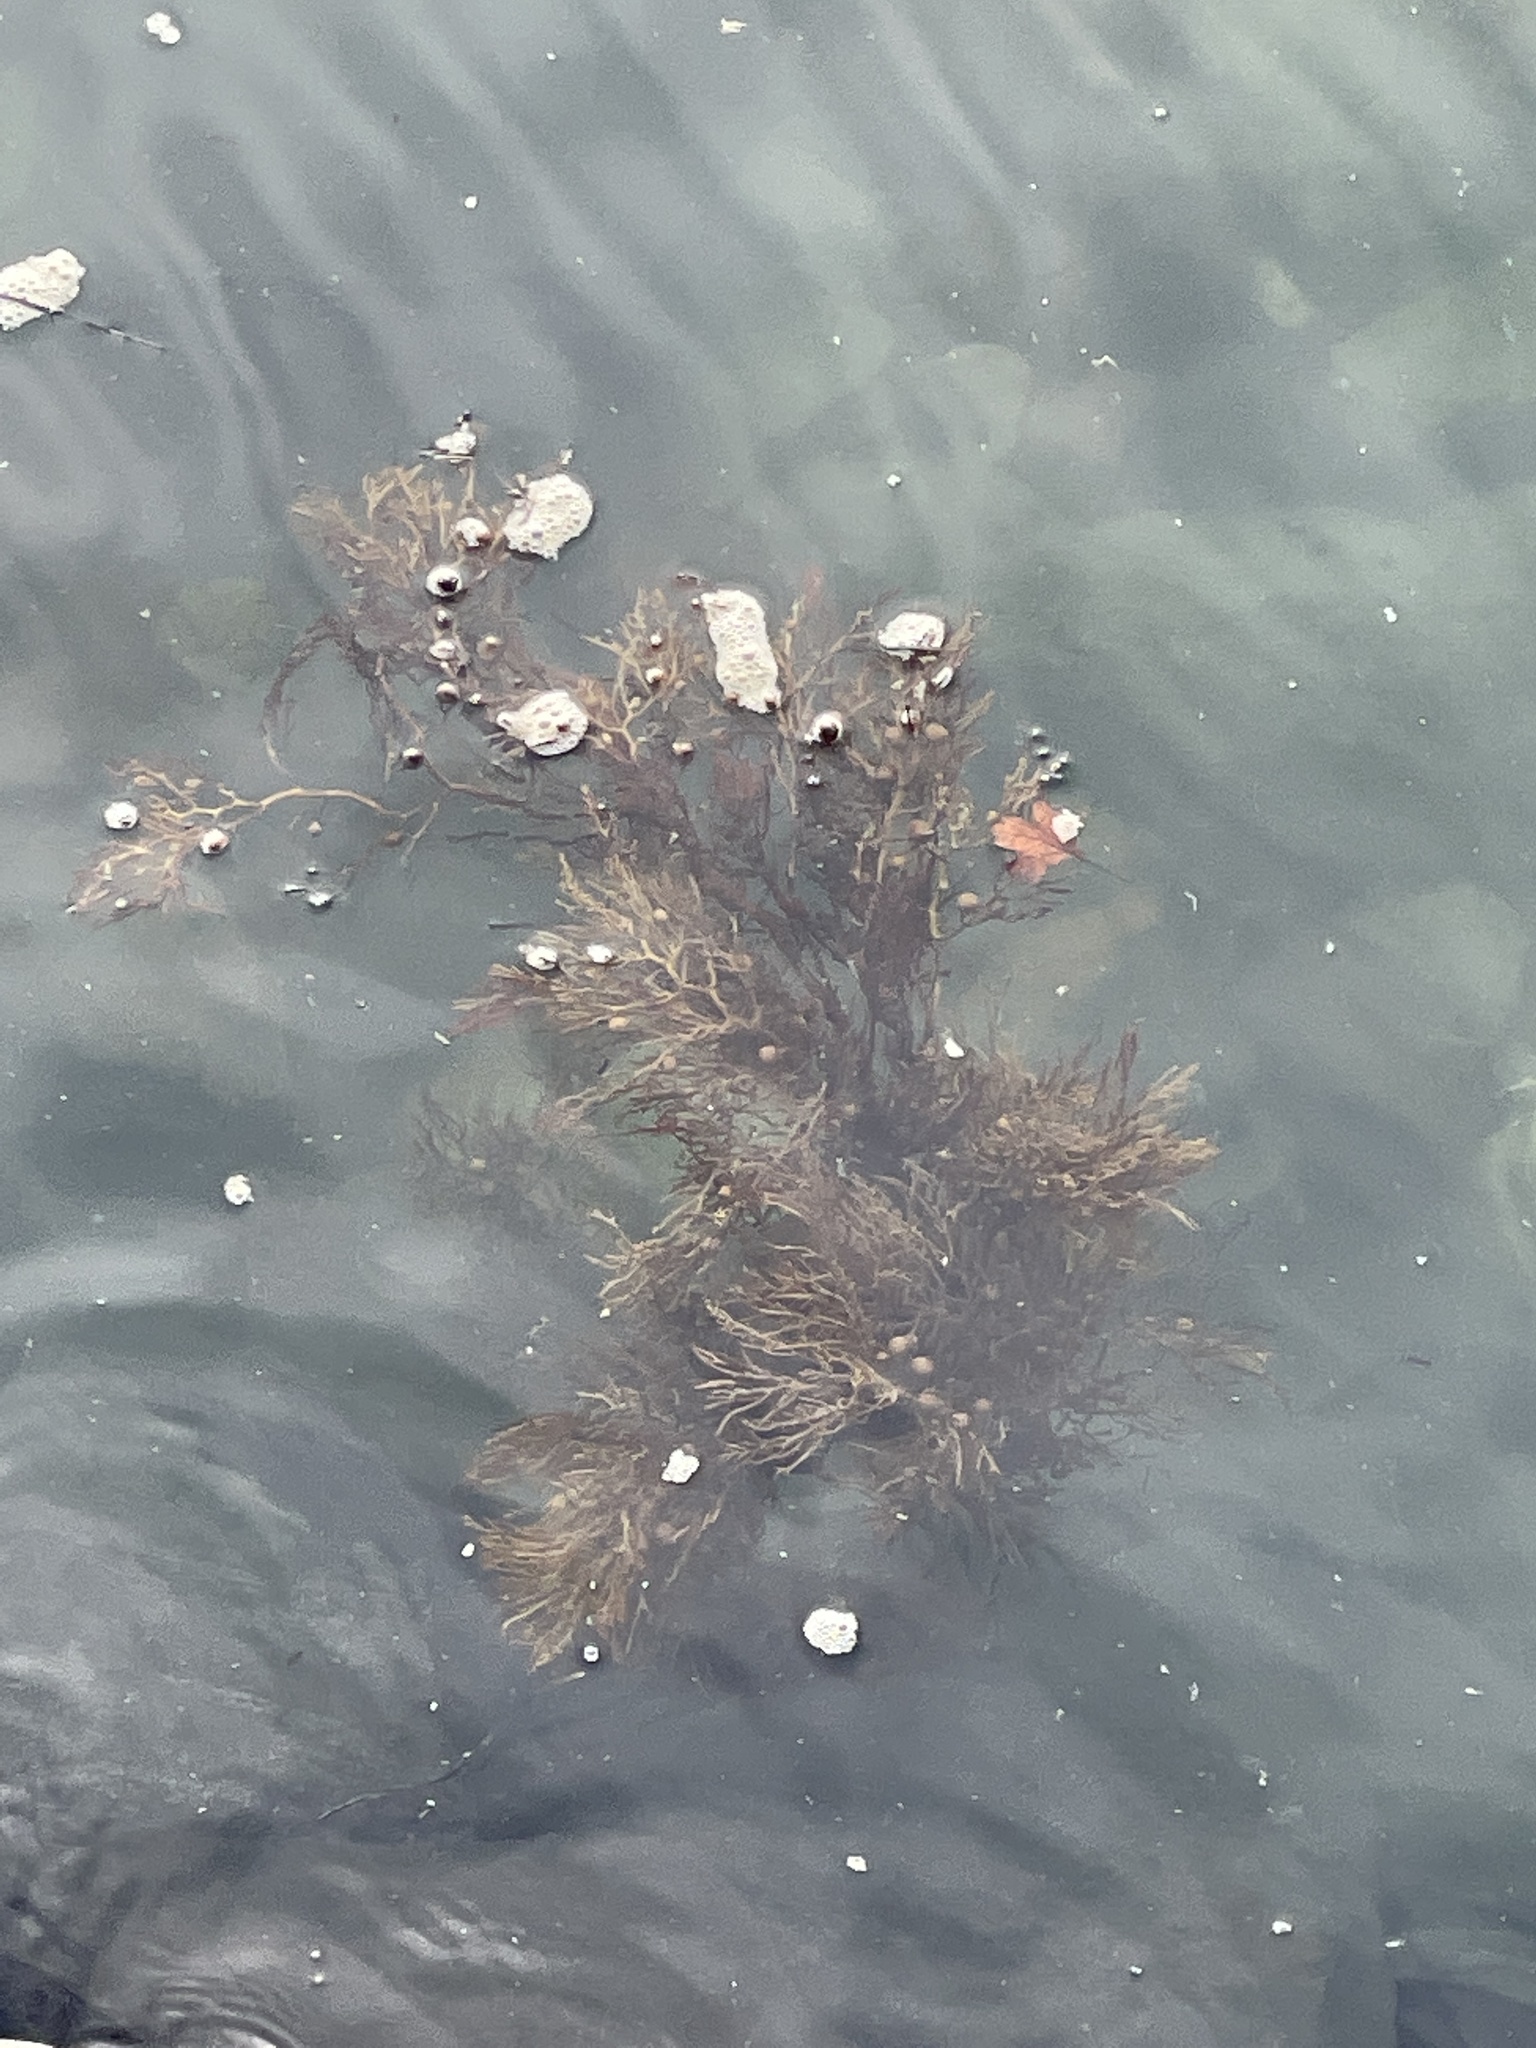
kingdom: Chromista
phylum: Ochrophyta
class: Phaeophyceae
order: Fucales
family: Sargassaceae
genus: Cystophora
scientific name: Cystophora retroflexa
